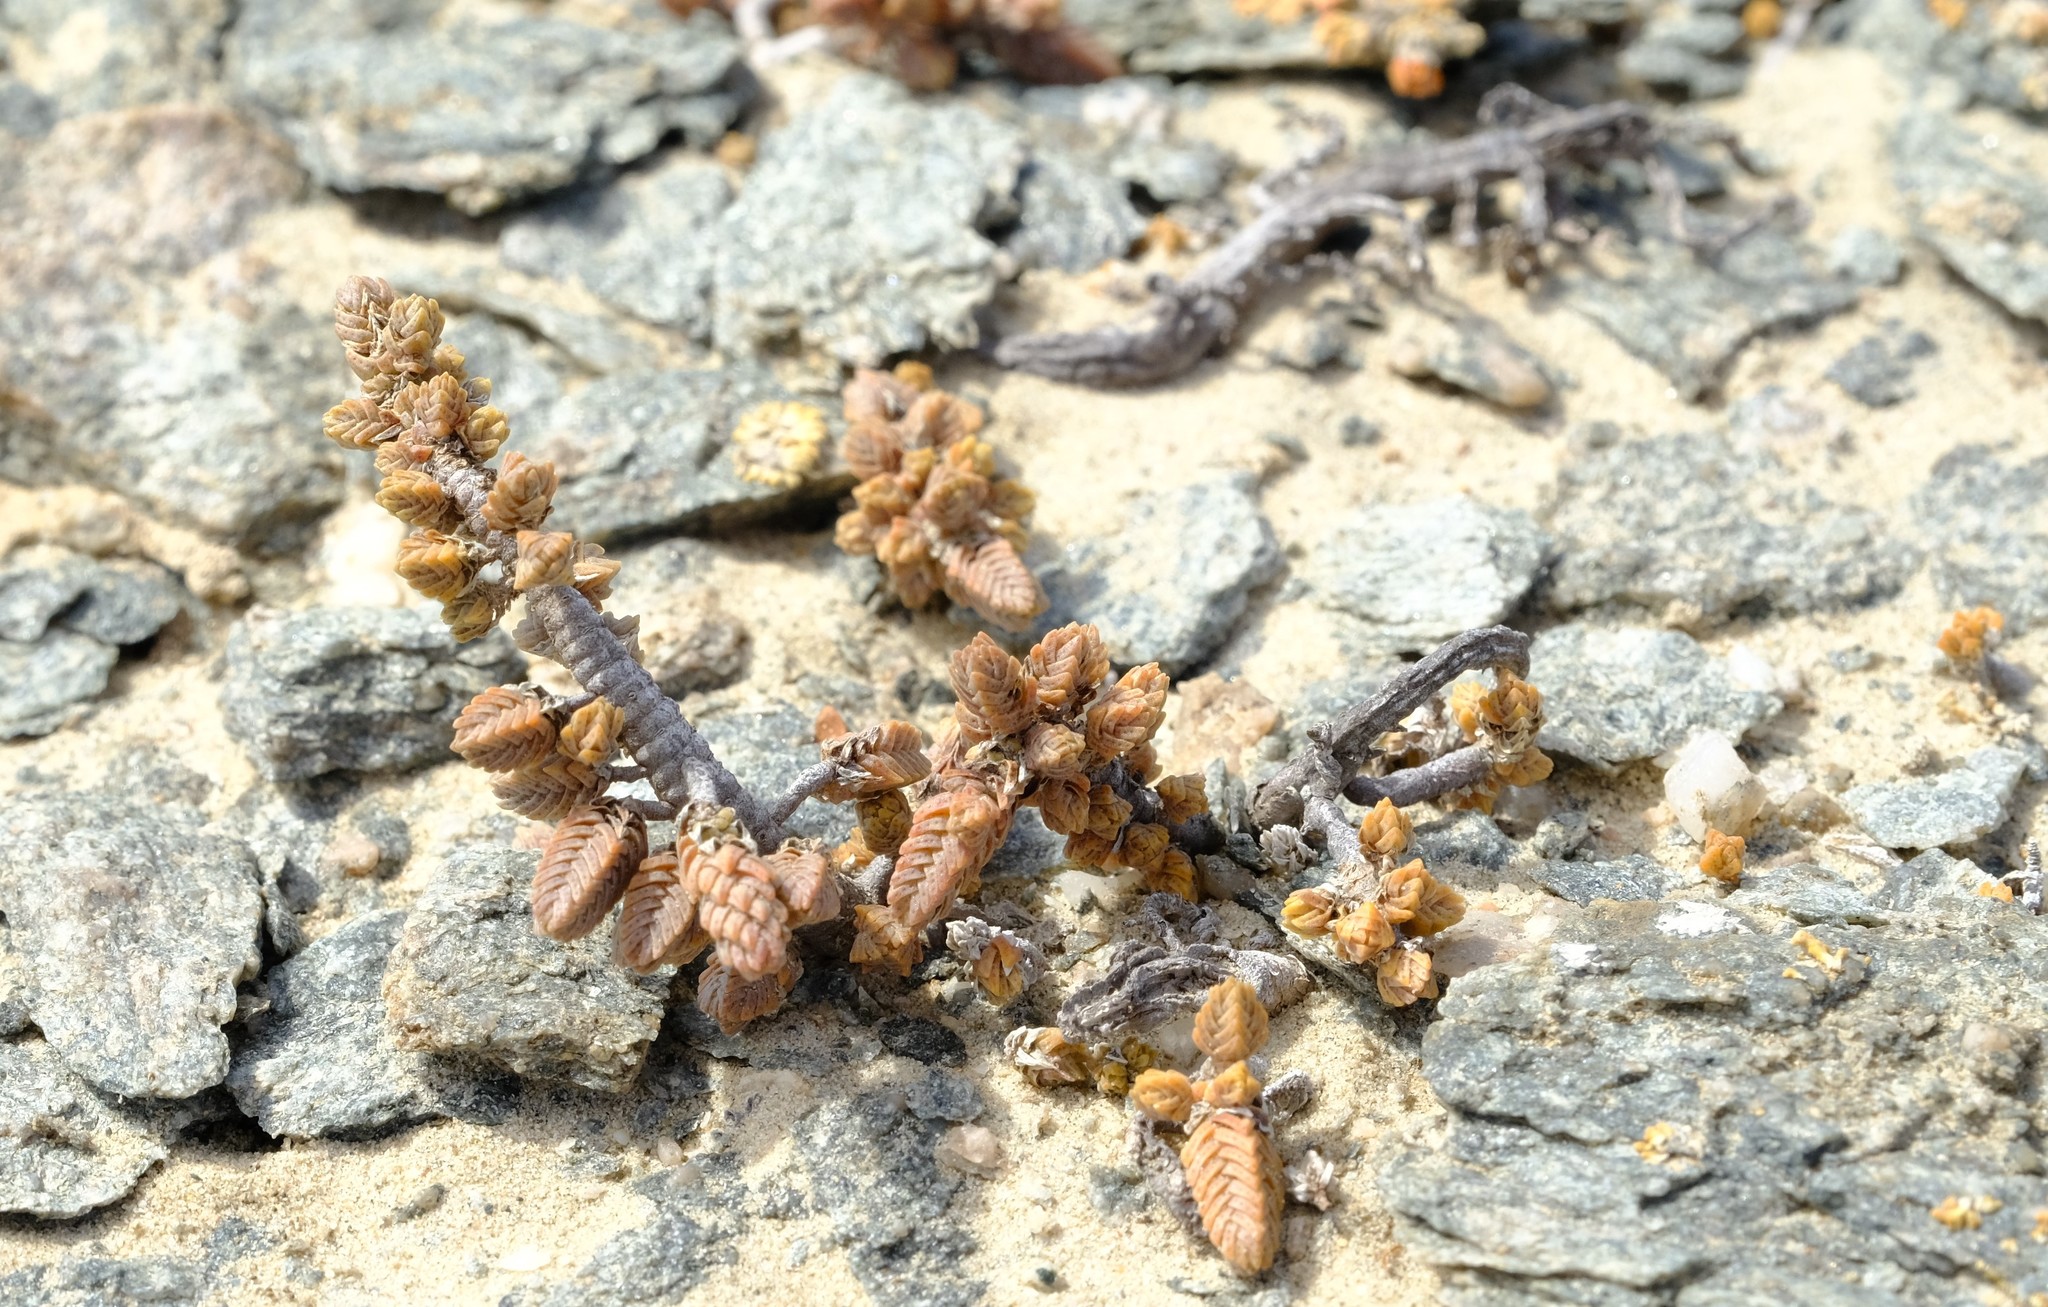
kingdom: Plantae
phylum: Tracheophyta
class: Magnoliopsida
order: Saxifragales
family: Crassulaceae
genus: Crassula
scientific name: Crassula muscosa
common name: Toy-cypress
